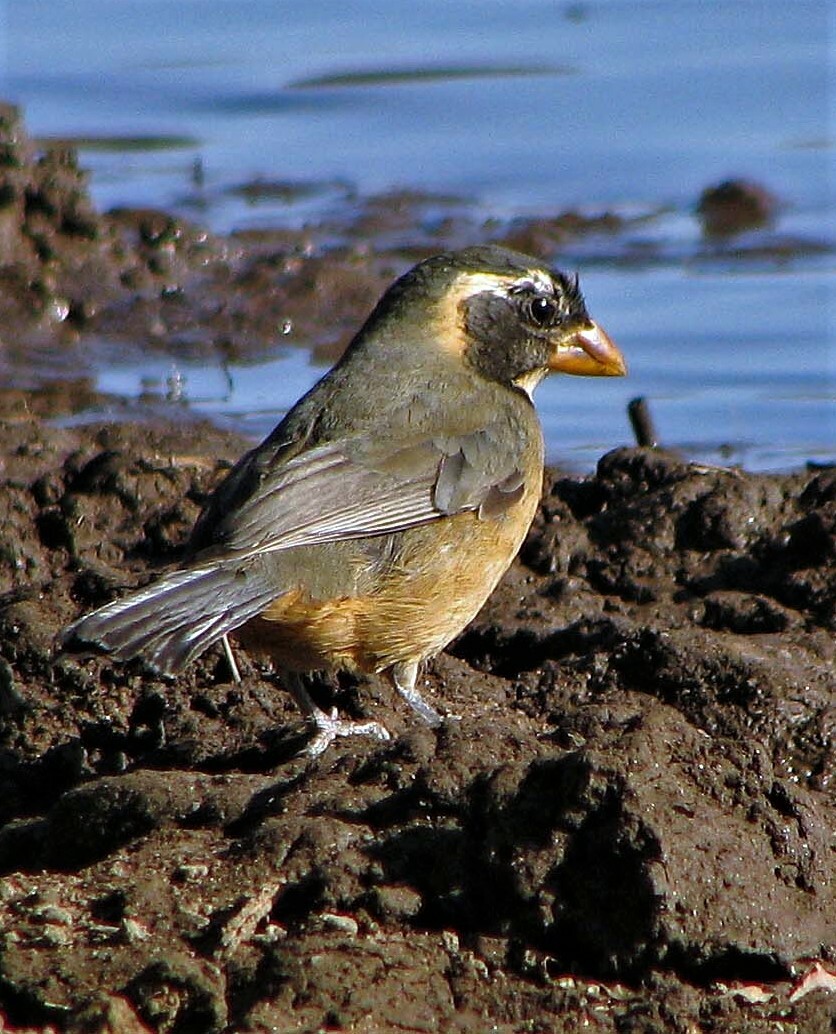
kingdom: Animalia
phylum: Chordata
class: Aves
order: Passeriformes
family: Thraupidae
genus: Saltator
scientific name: Saltator aurantiirostris
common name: Golden-billed saltator
